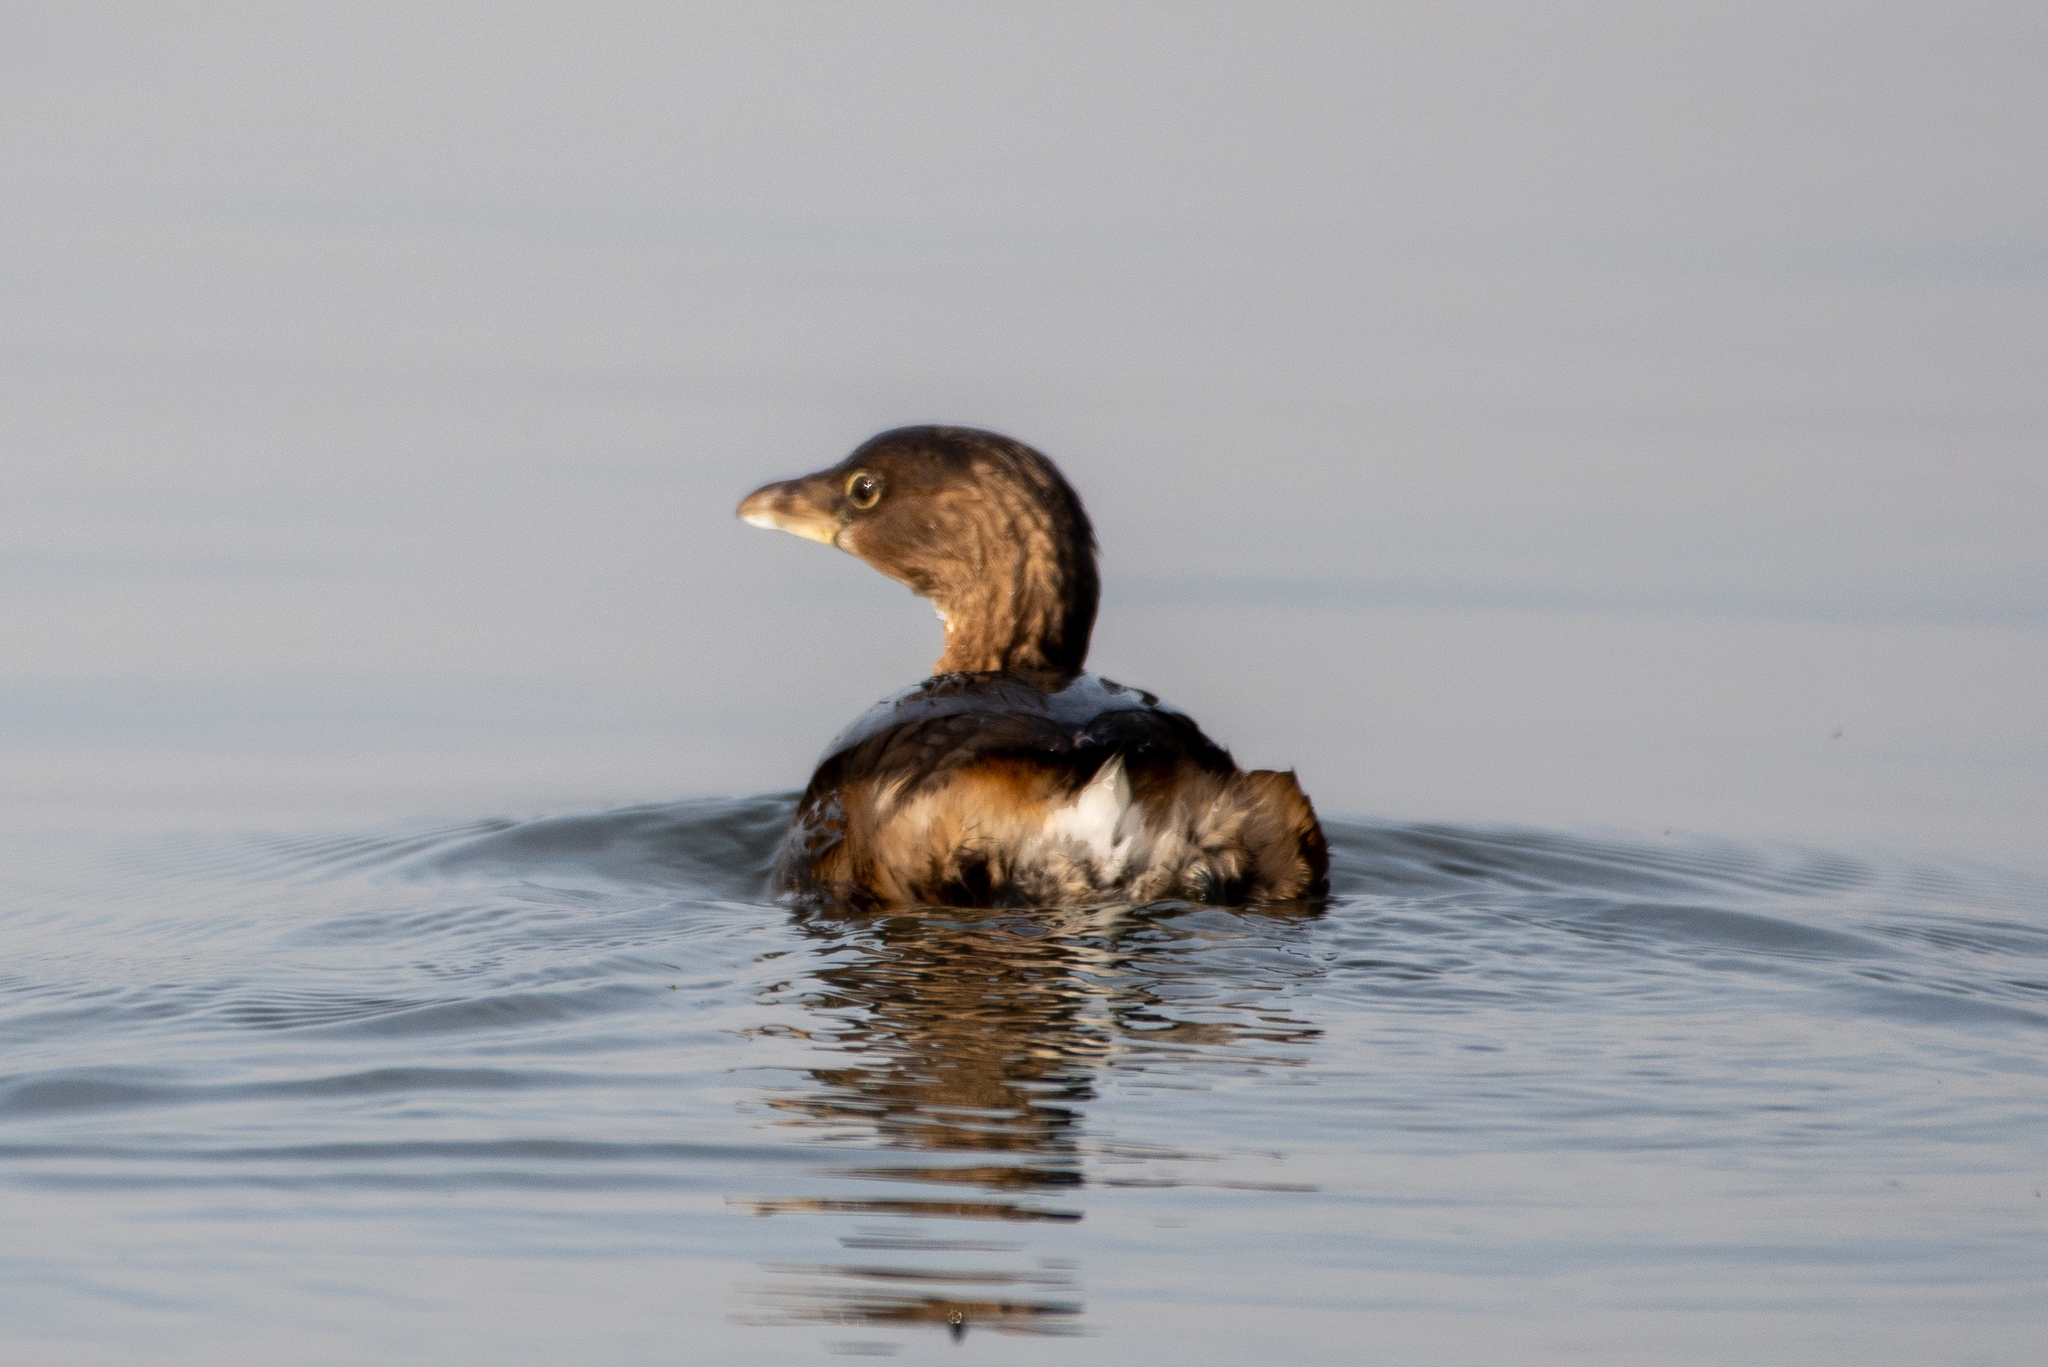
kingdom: Animalia
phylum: Chordata
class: Aves
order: Podicipediformes
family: Podicipedidae
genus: Podilymbus
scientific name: Podilymbus podiceps
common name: Pied-billed grebe
